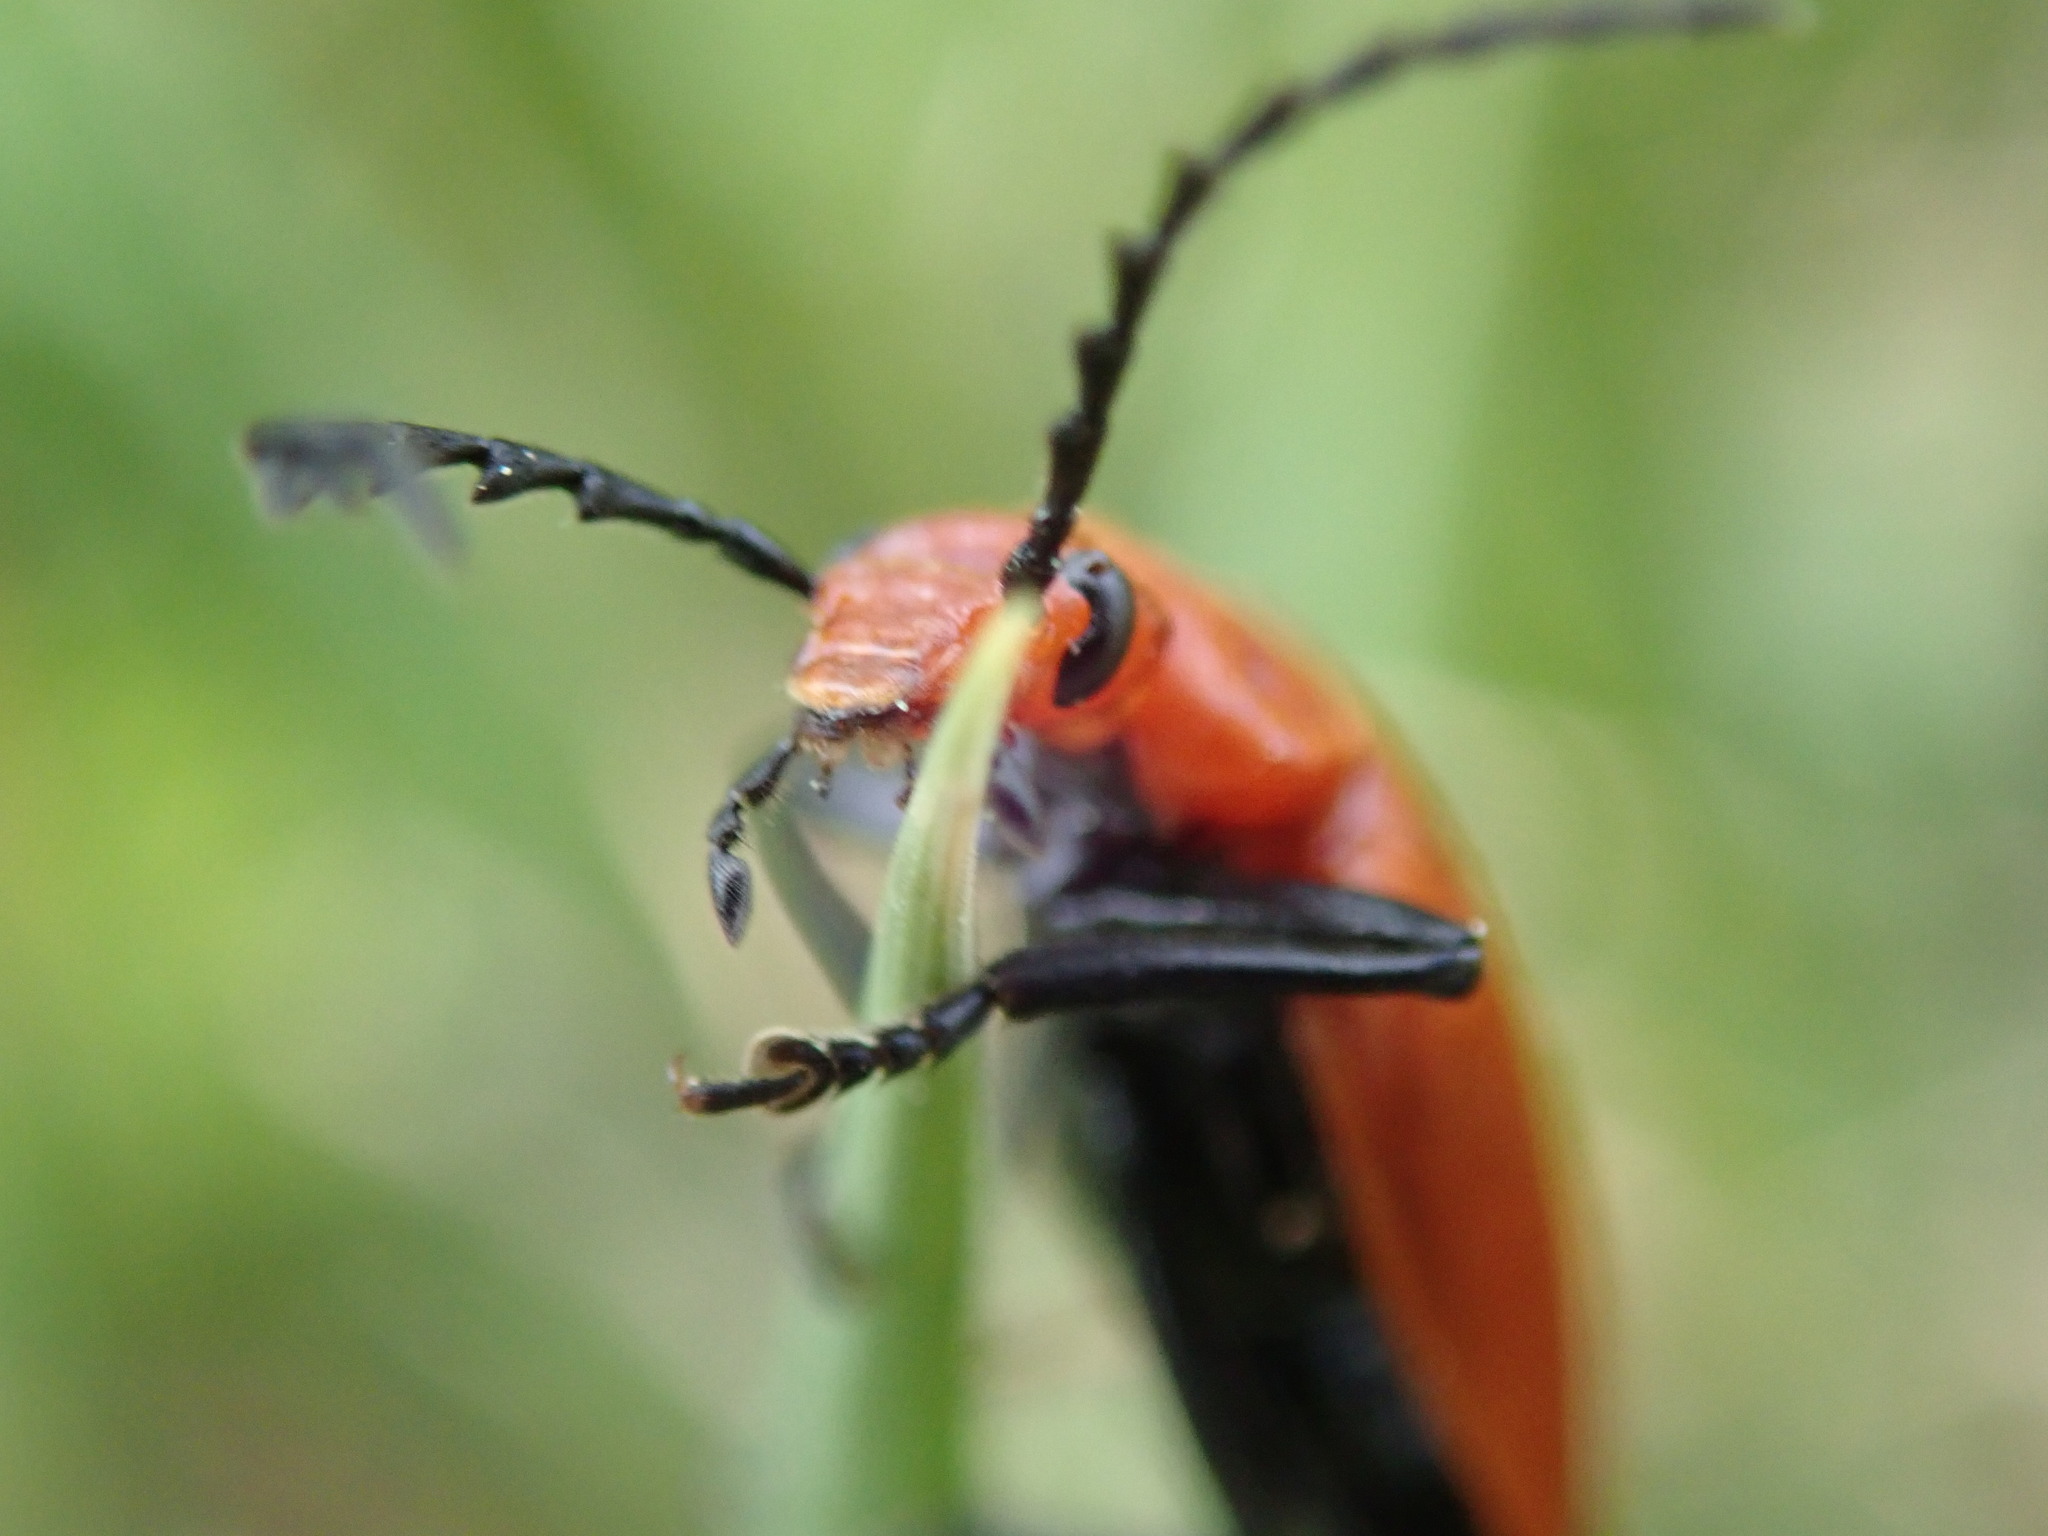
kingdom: Animalia
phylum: Arthropoda
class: Insecta
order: Coleoptera
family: Pyrochroidae
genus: Pyrochroa
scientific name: Pyrochroa serraticornis
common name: Red-headed cardinal beetle
